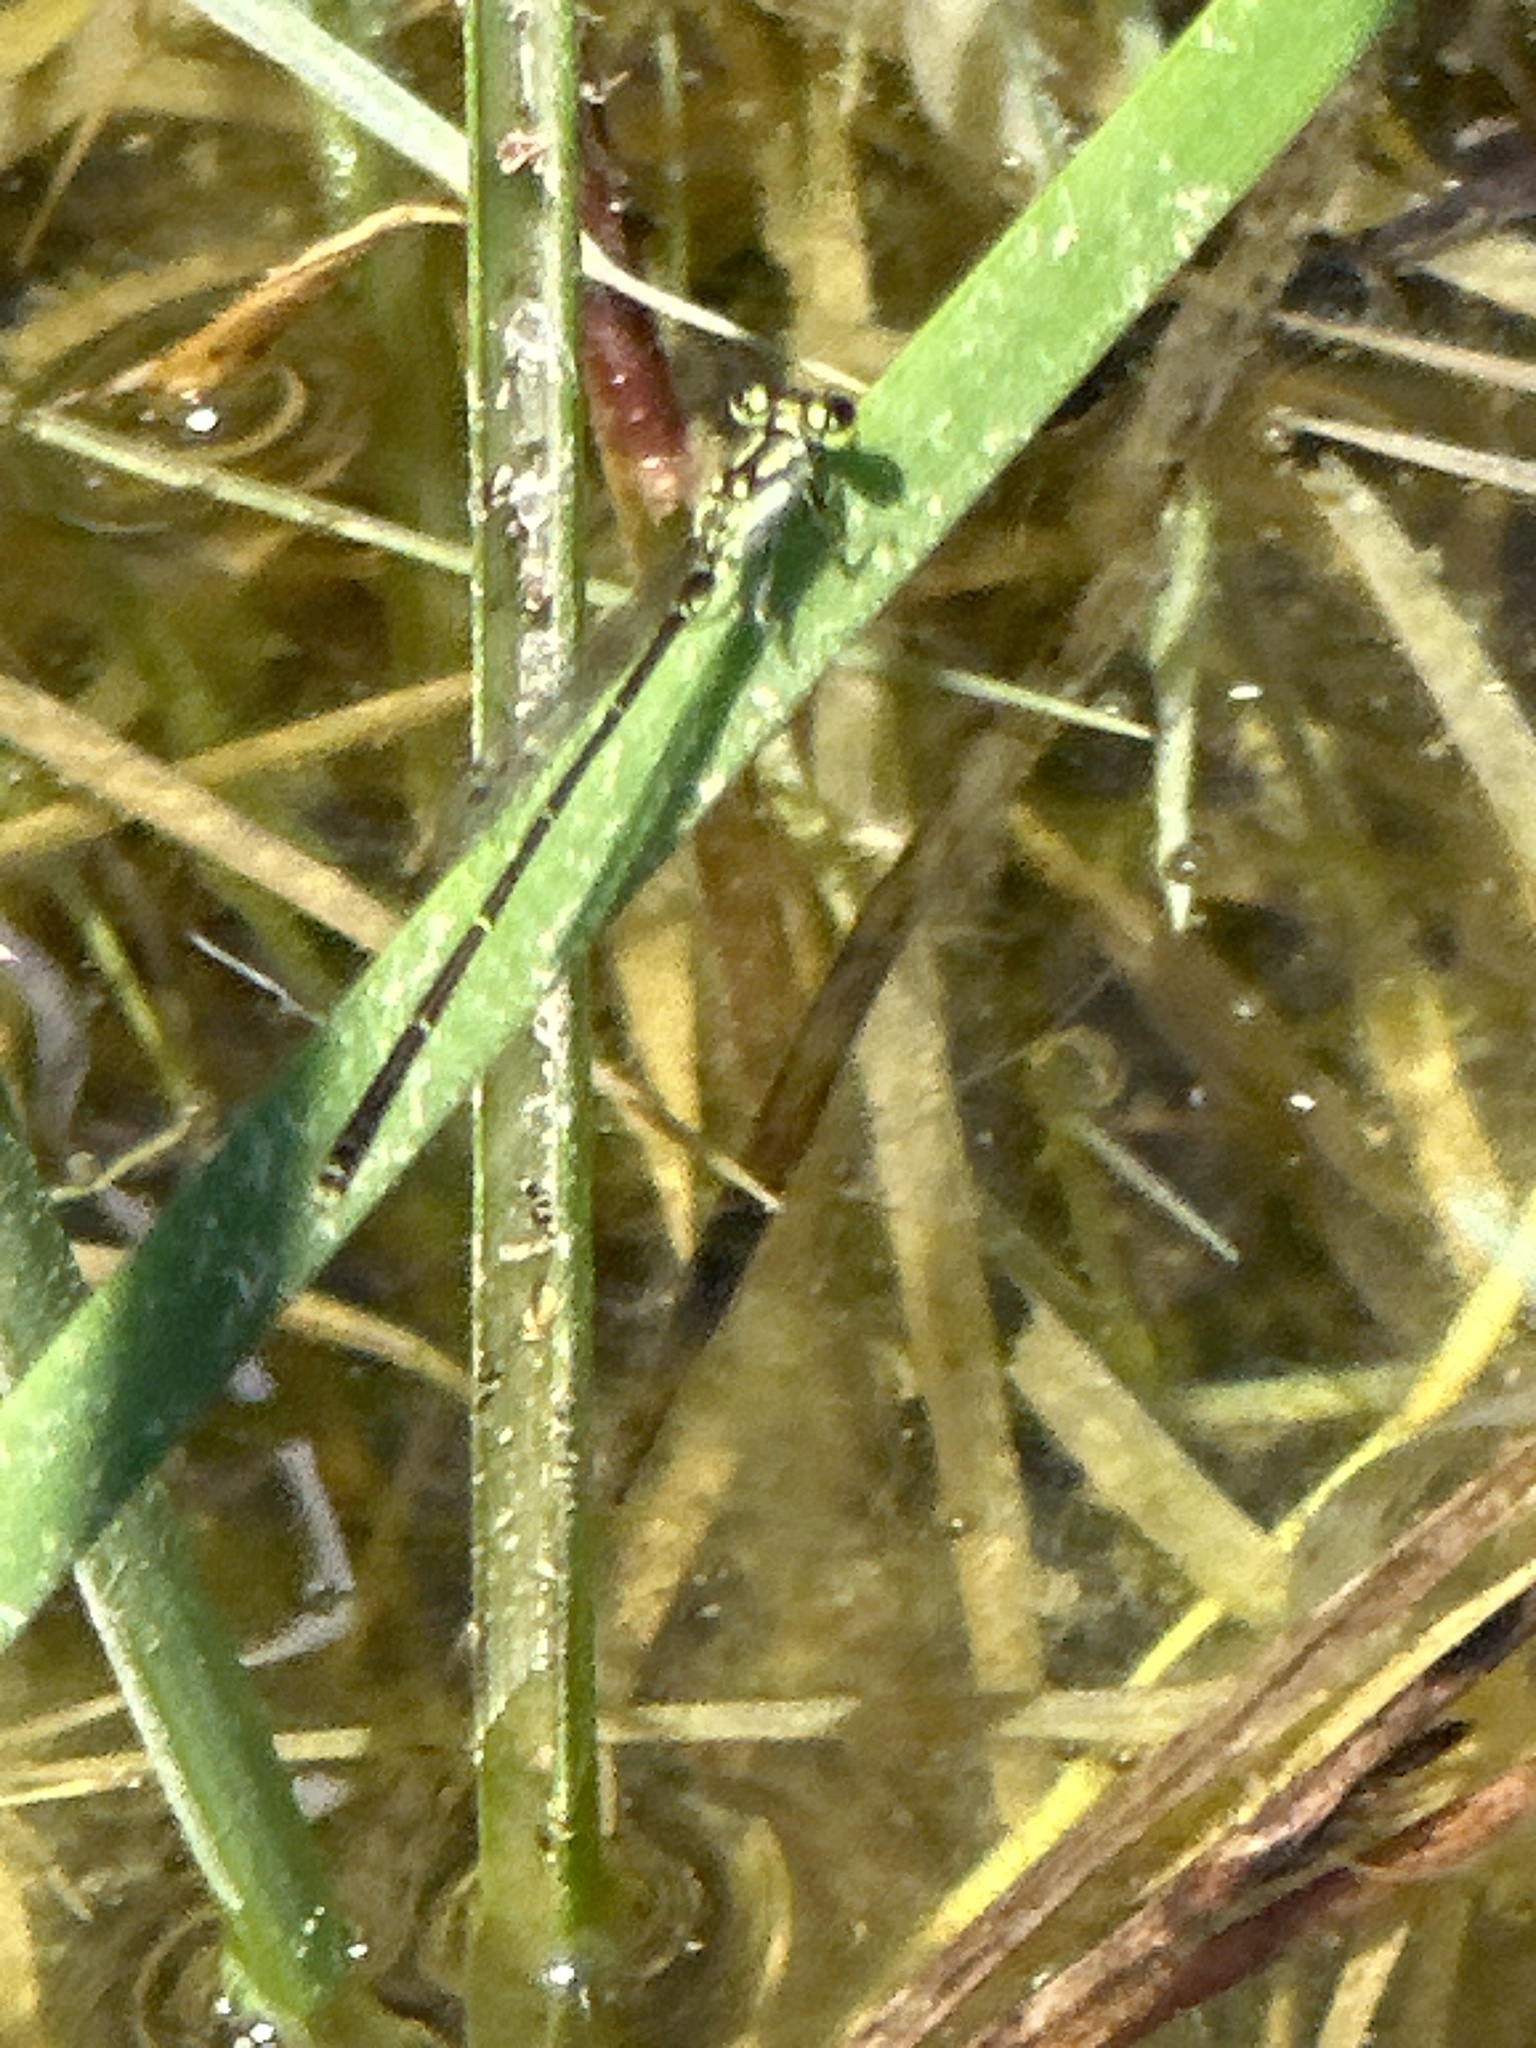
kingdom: Animalia
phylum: Arthropoda
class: Insecta
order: Odonata
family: Coenagrionidae
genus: Ischnura
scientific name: Ischnura posita
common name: Fragile forktail
